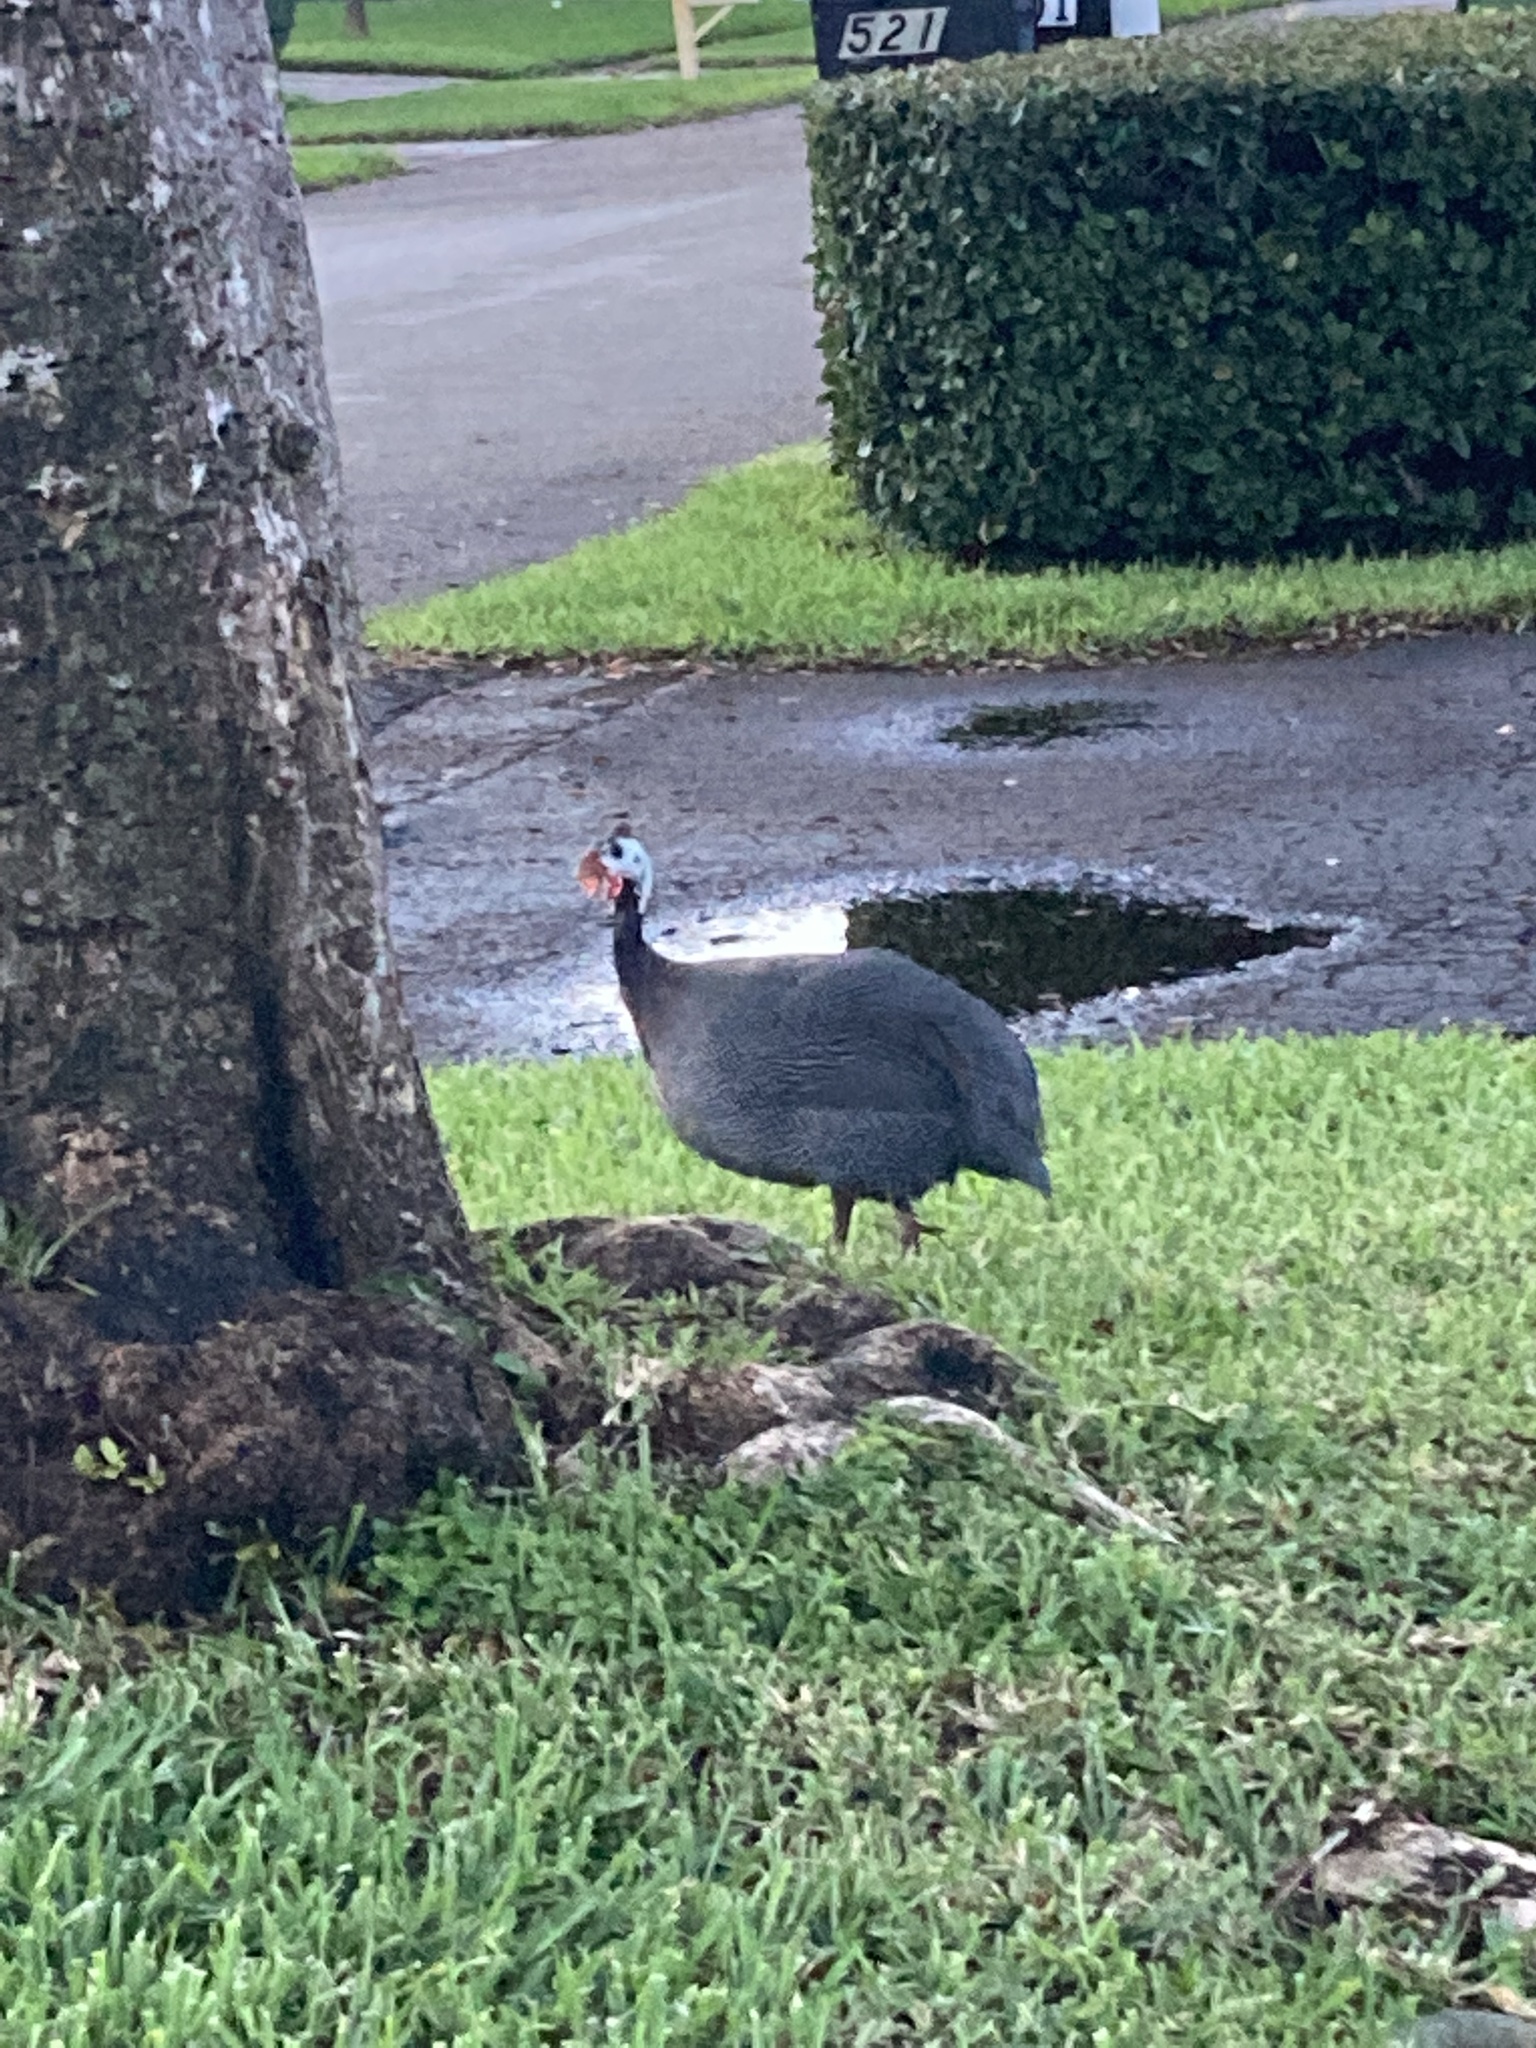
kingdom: Animalia
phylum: Chordata
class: Aves
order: Galliformes
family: Numididae
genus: Numida
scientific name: Numida meleagris
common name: Helmeted guineafowl
